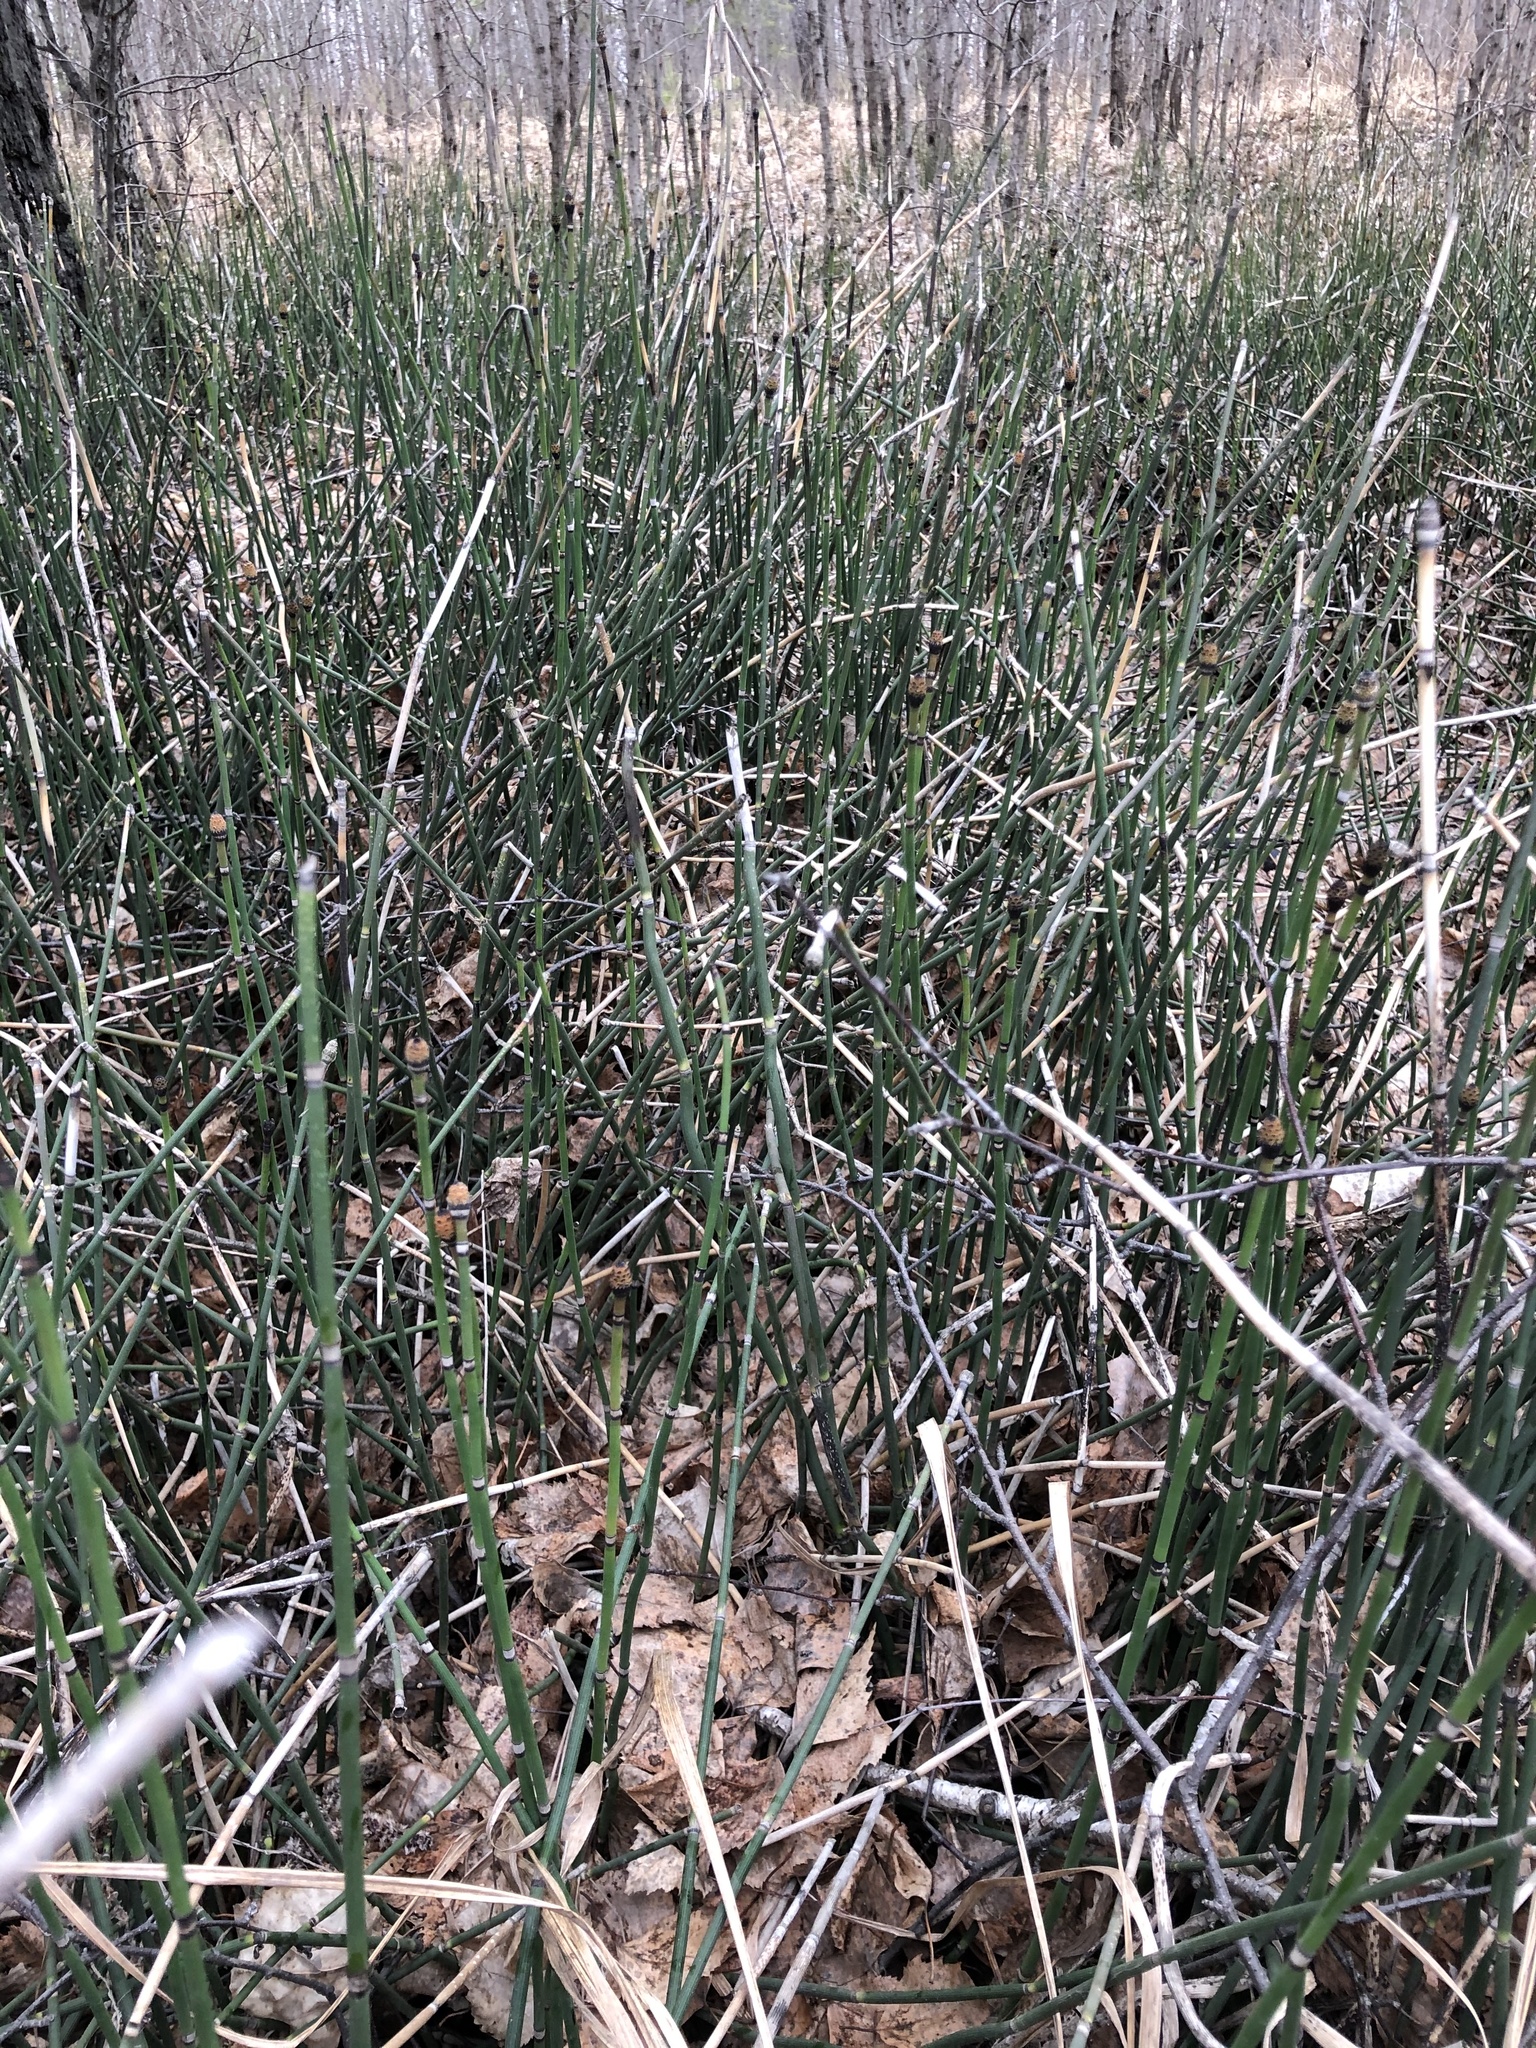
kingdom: Plantae
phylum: Tracheophyta
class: Polypodiopsida
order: Equisetales
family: Equisetaceae
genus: Equisetum
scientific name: Equisetum hyemale
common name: Rough horsetail
